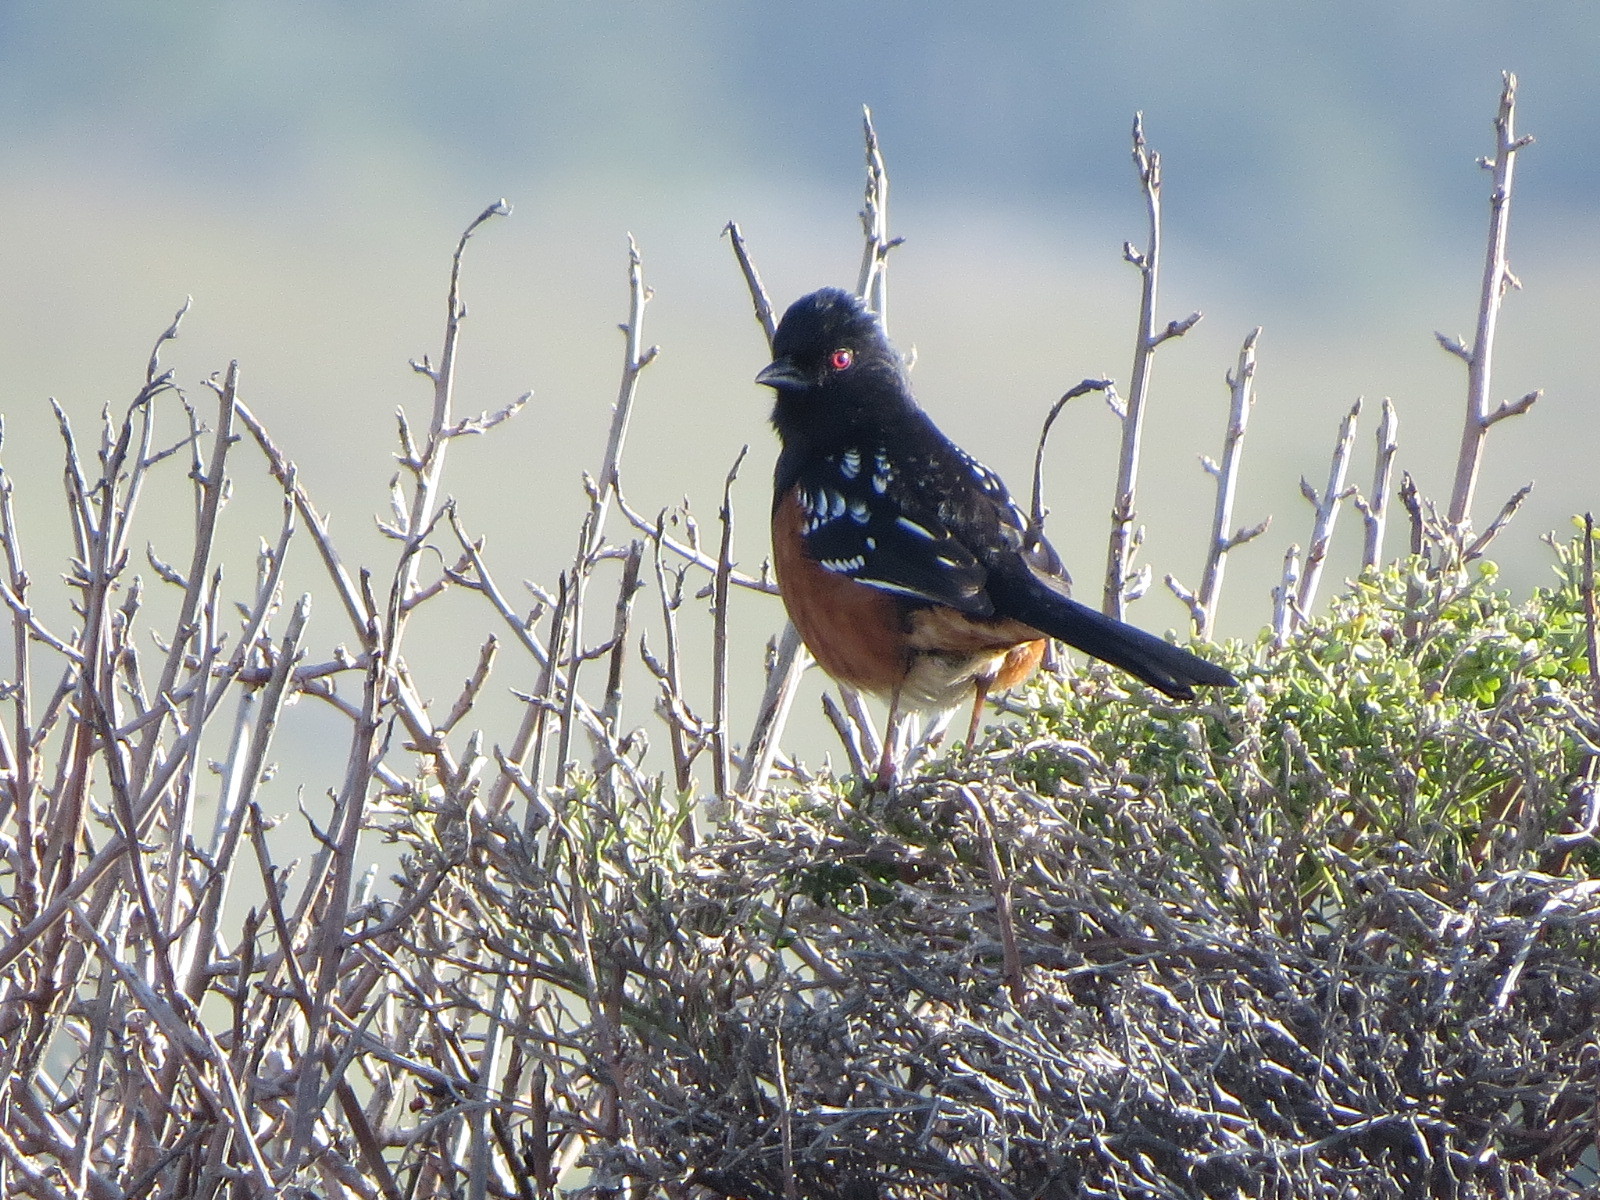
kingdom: Animalia
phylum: Chordata
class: Aves
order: Passeriformes
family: Passerellidae
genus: Pipilo
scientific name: Pipilo maculatus
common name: Spotted towhee
